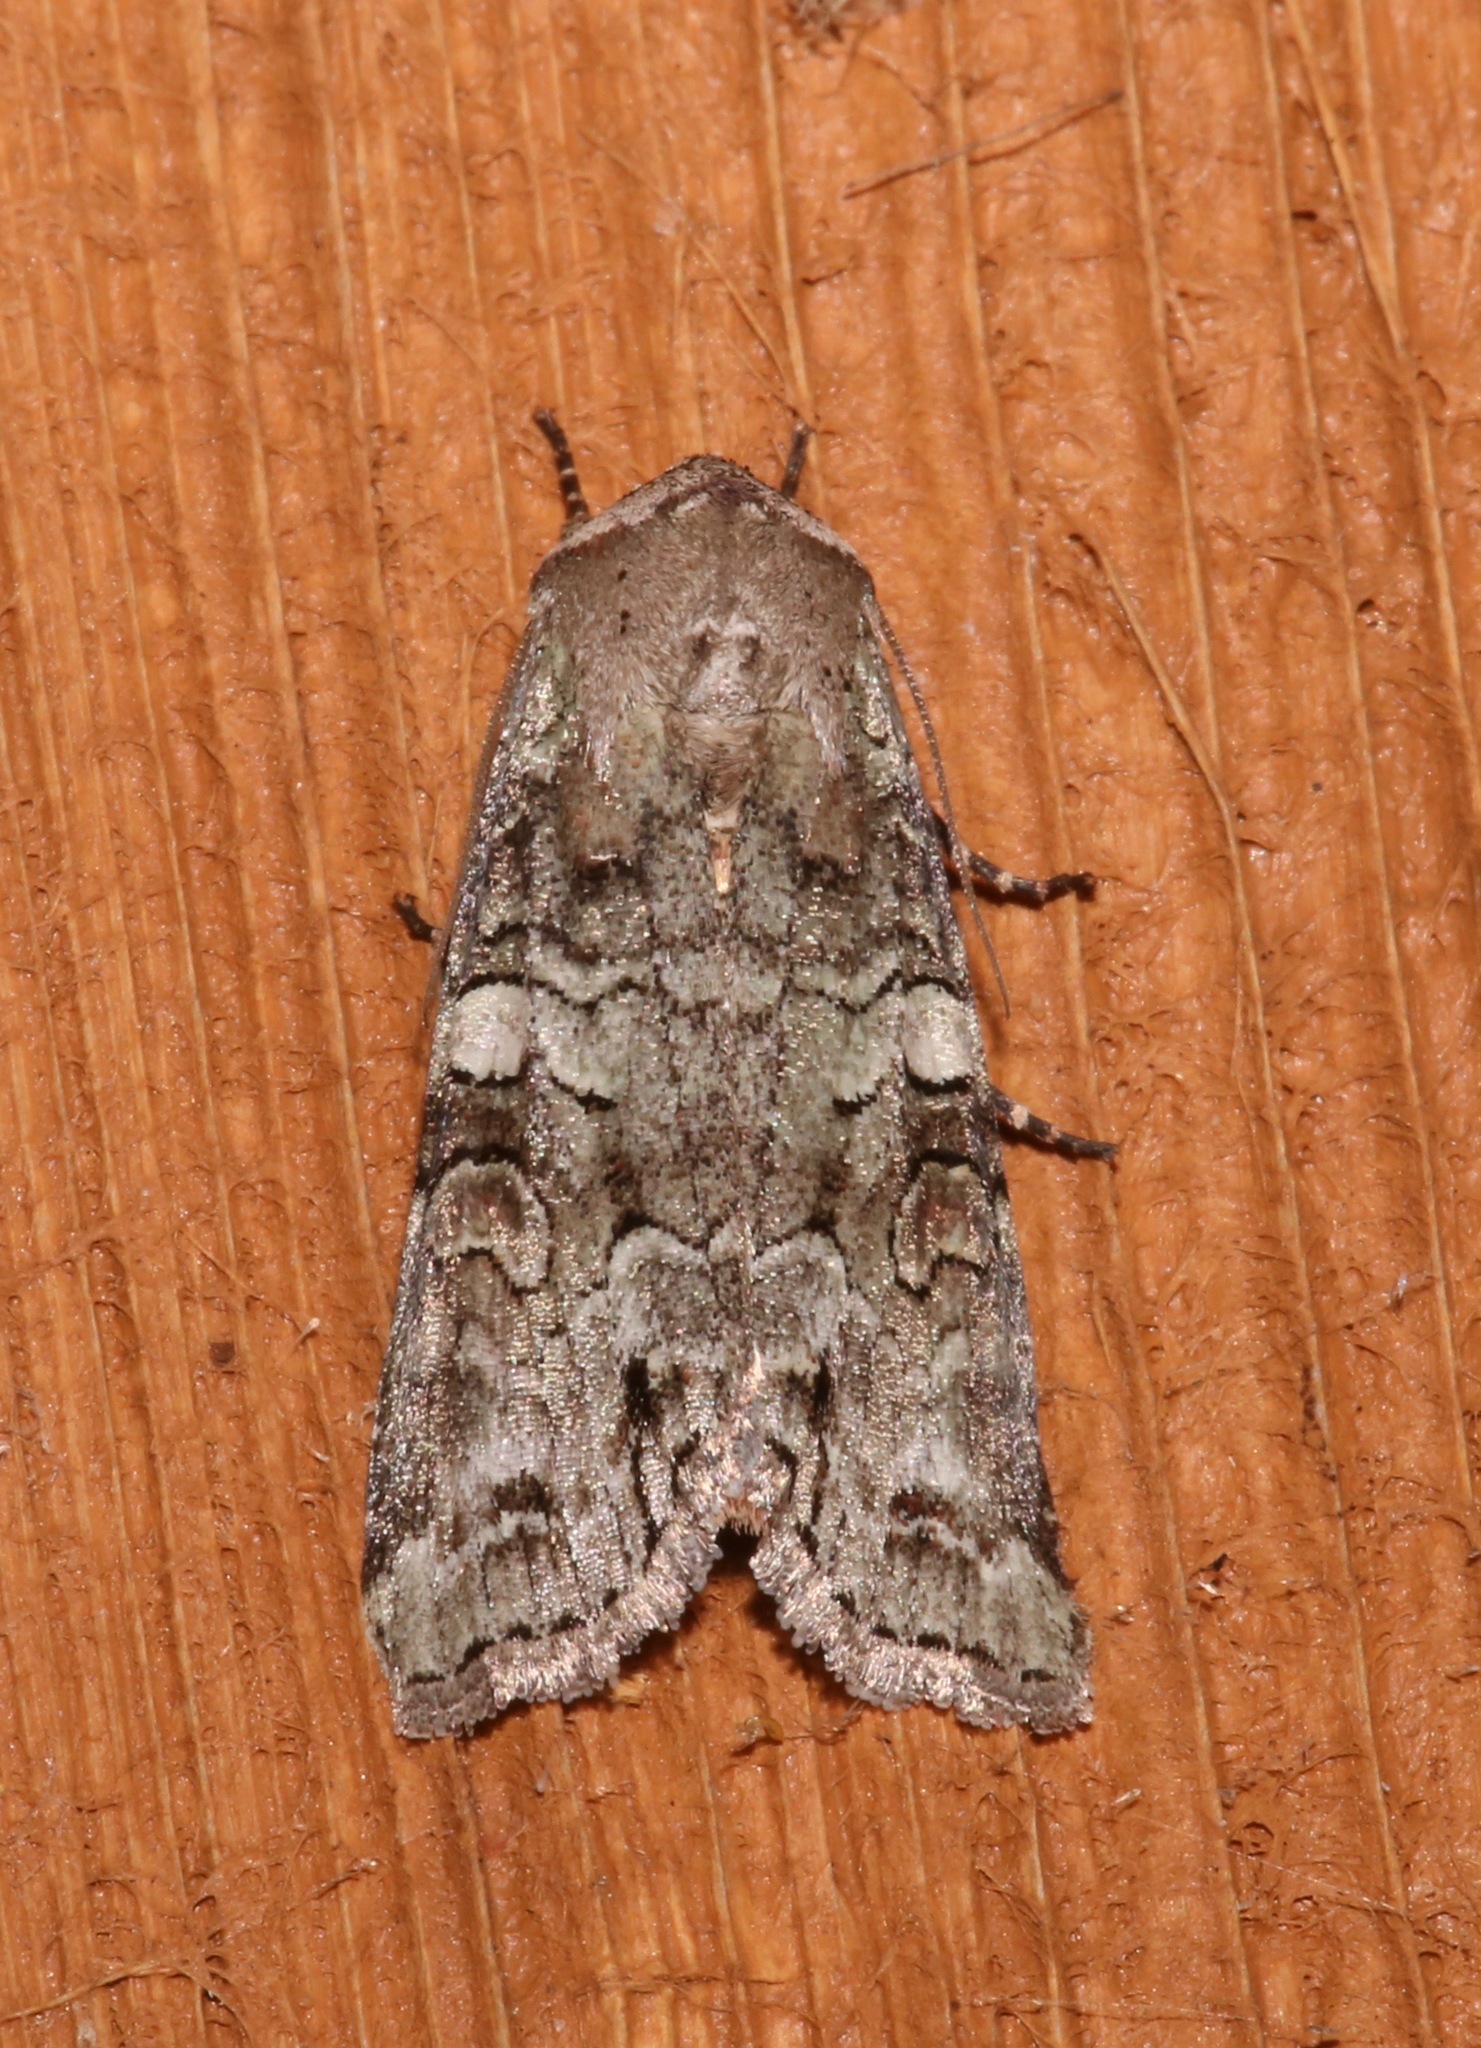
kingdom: Animalia
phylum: Arthropoda
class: Insecta
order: Lepidoptera
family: Noctuidae
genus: Egira
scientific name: Egira alternans
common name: Alternate woodling
